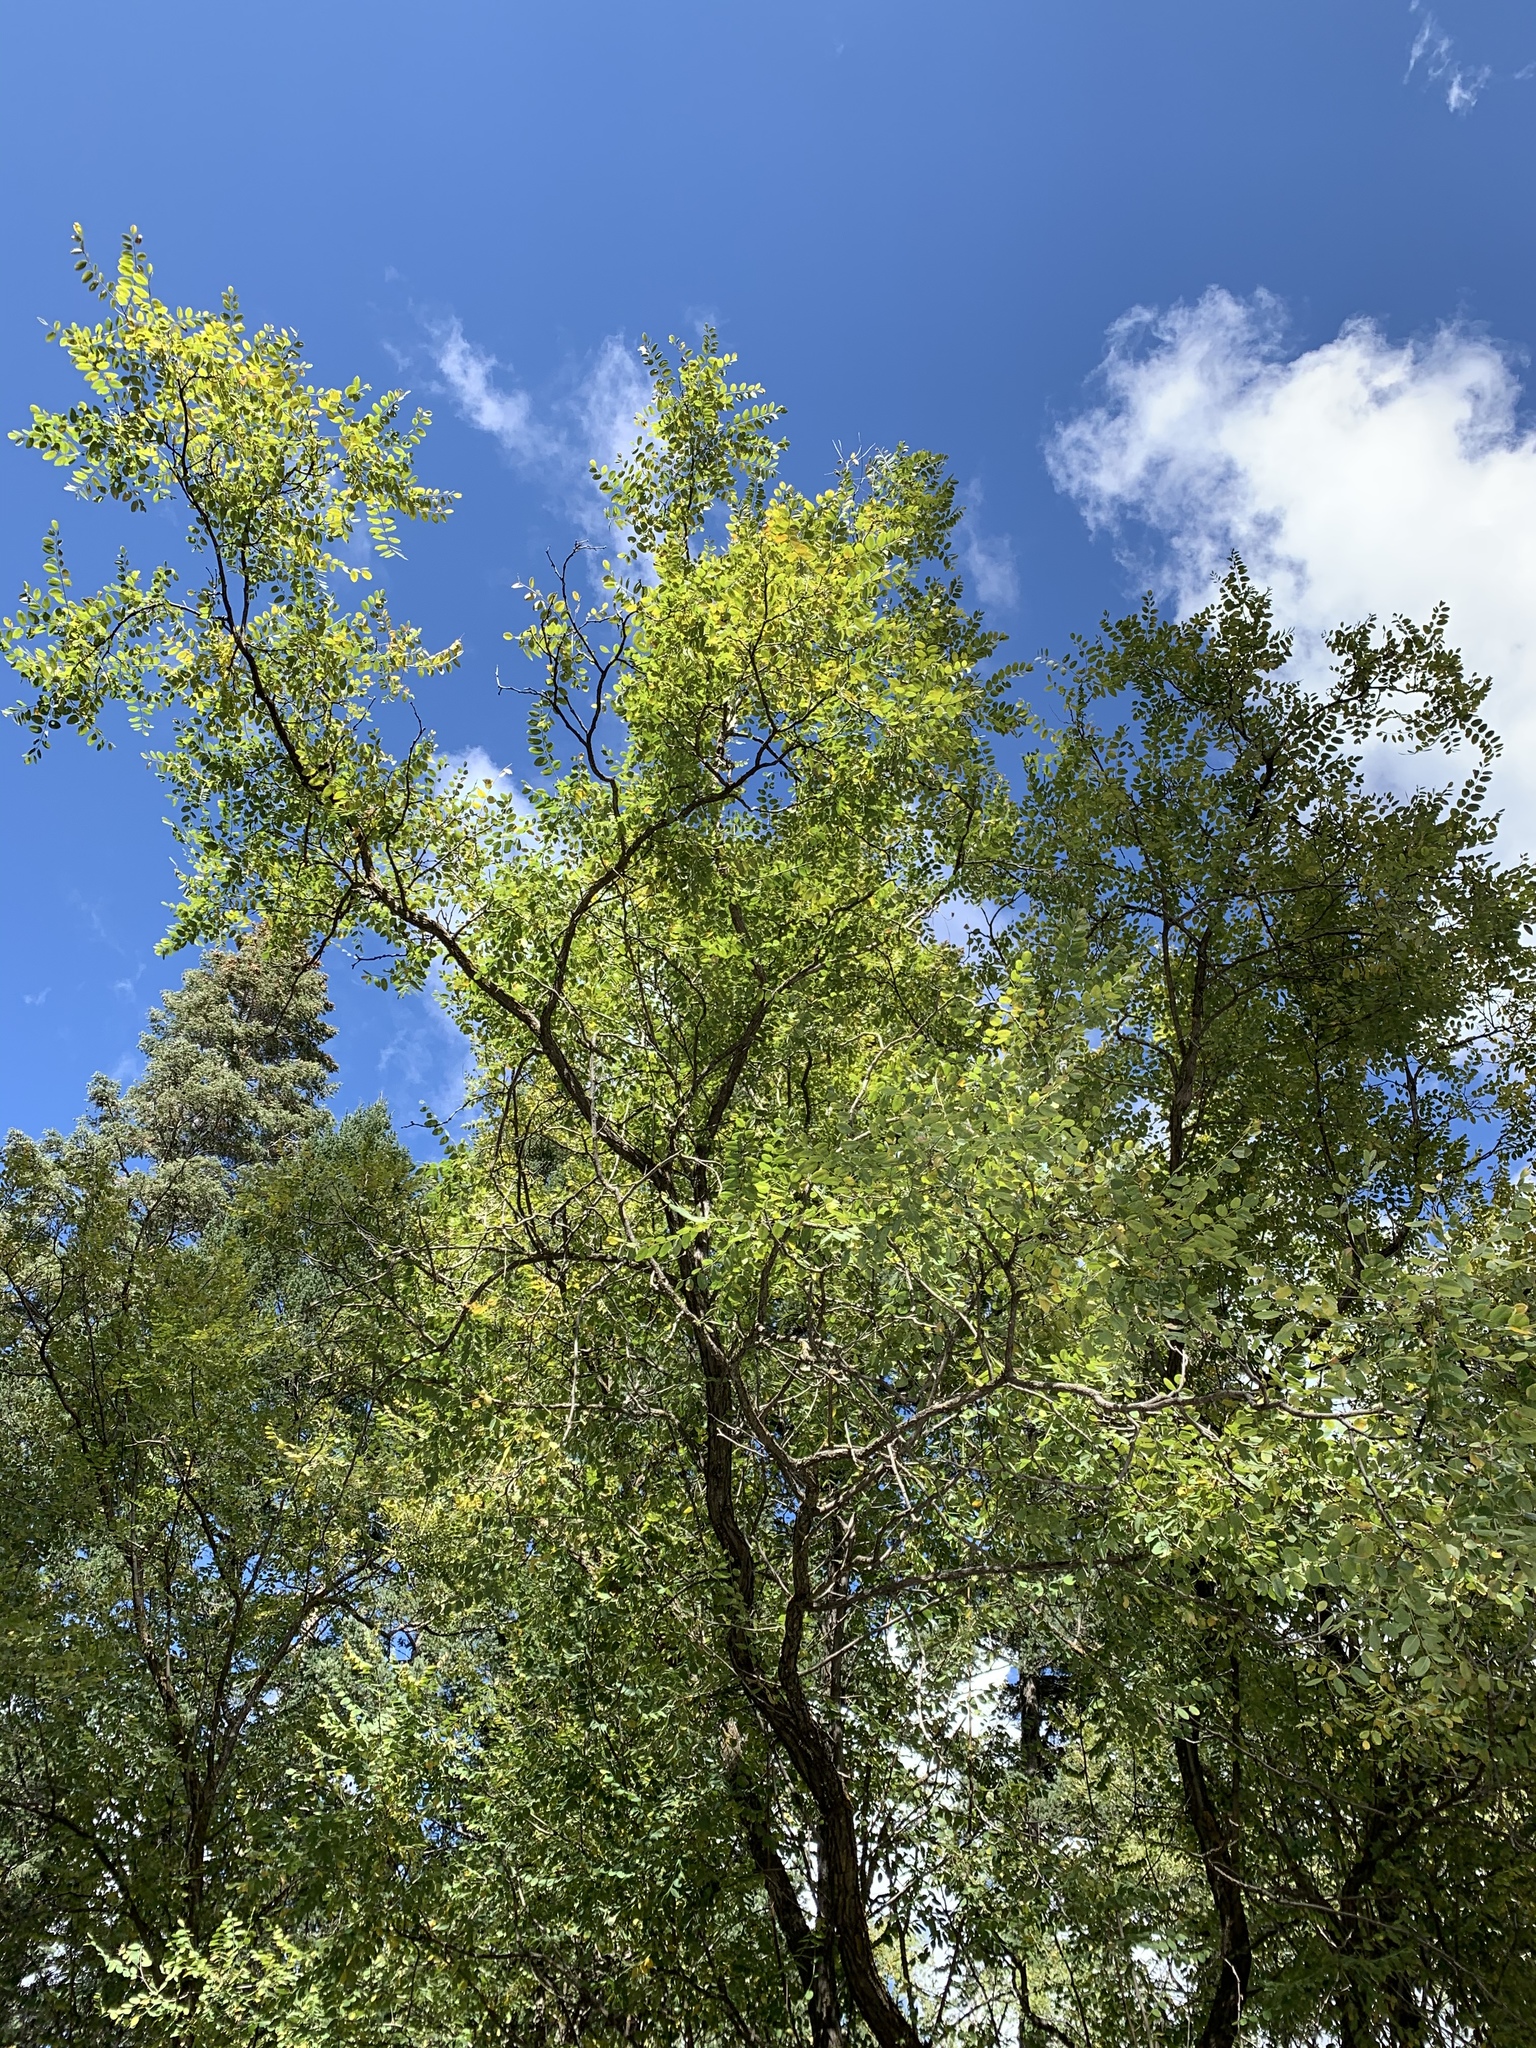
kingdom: Plantae
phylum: Tracheophyta
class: Magnoliopsida
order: Fabales
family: Fabaceae
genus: Robinia
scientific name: Robinia neomexicana
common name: New mexico locust
